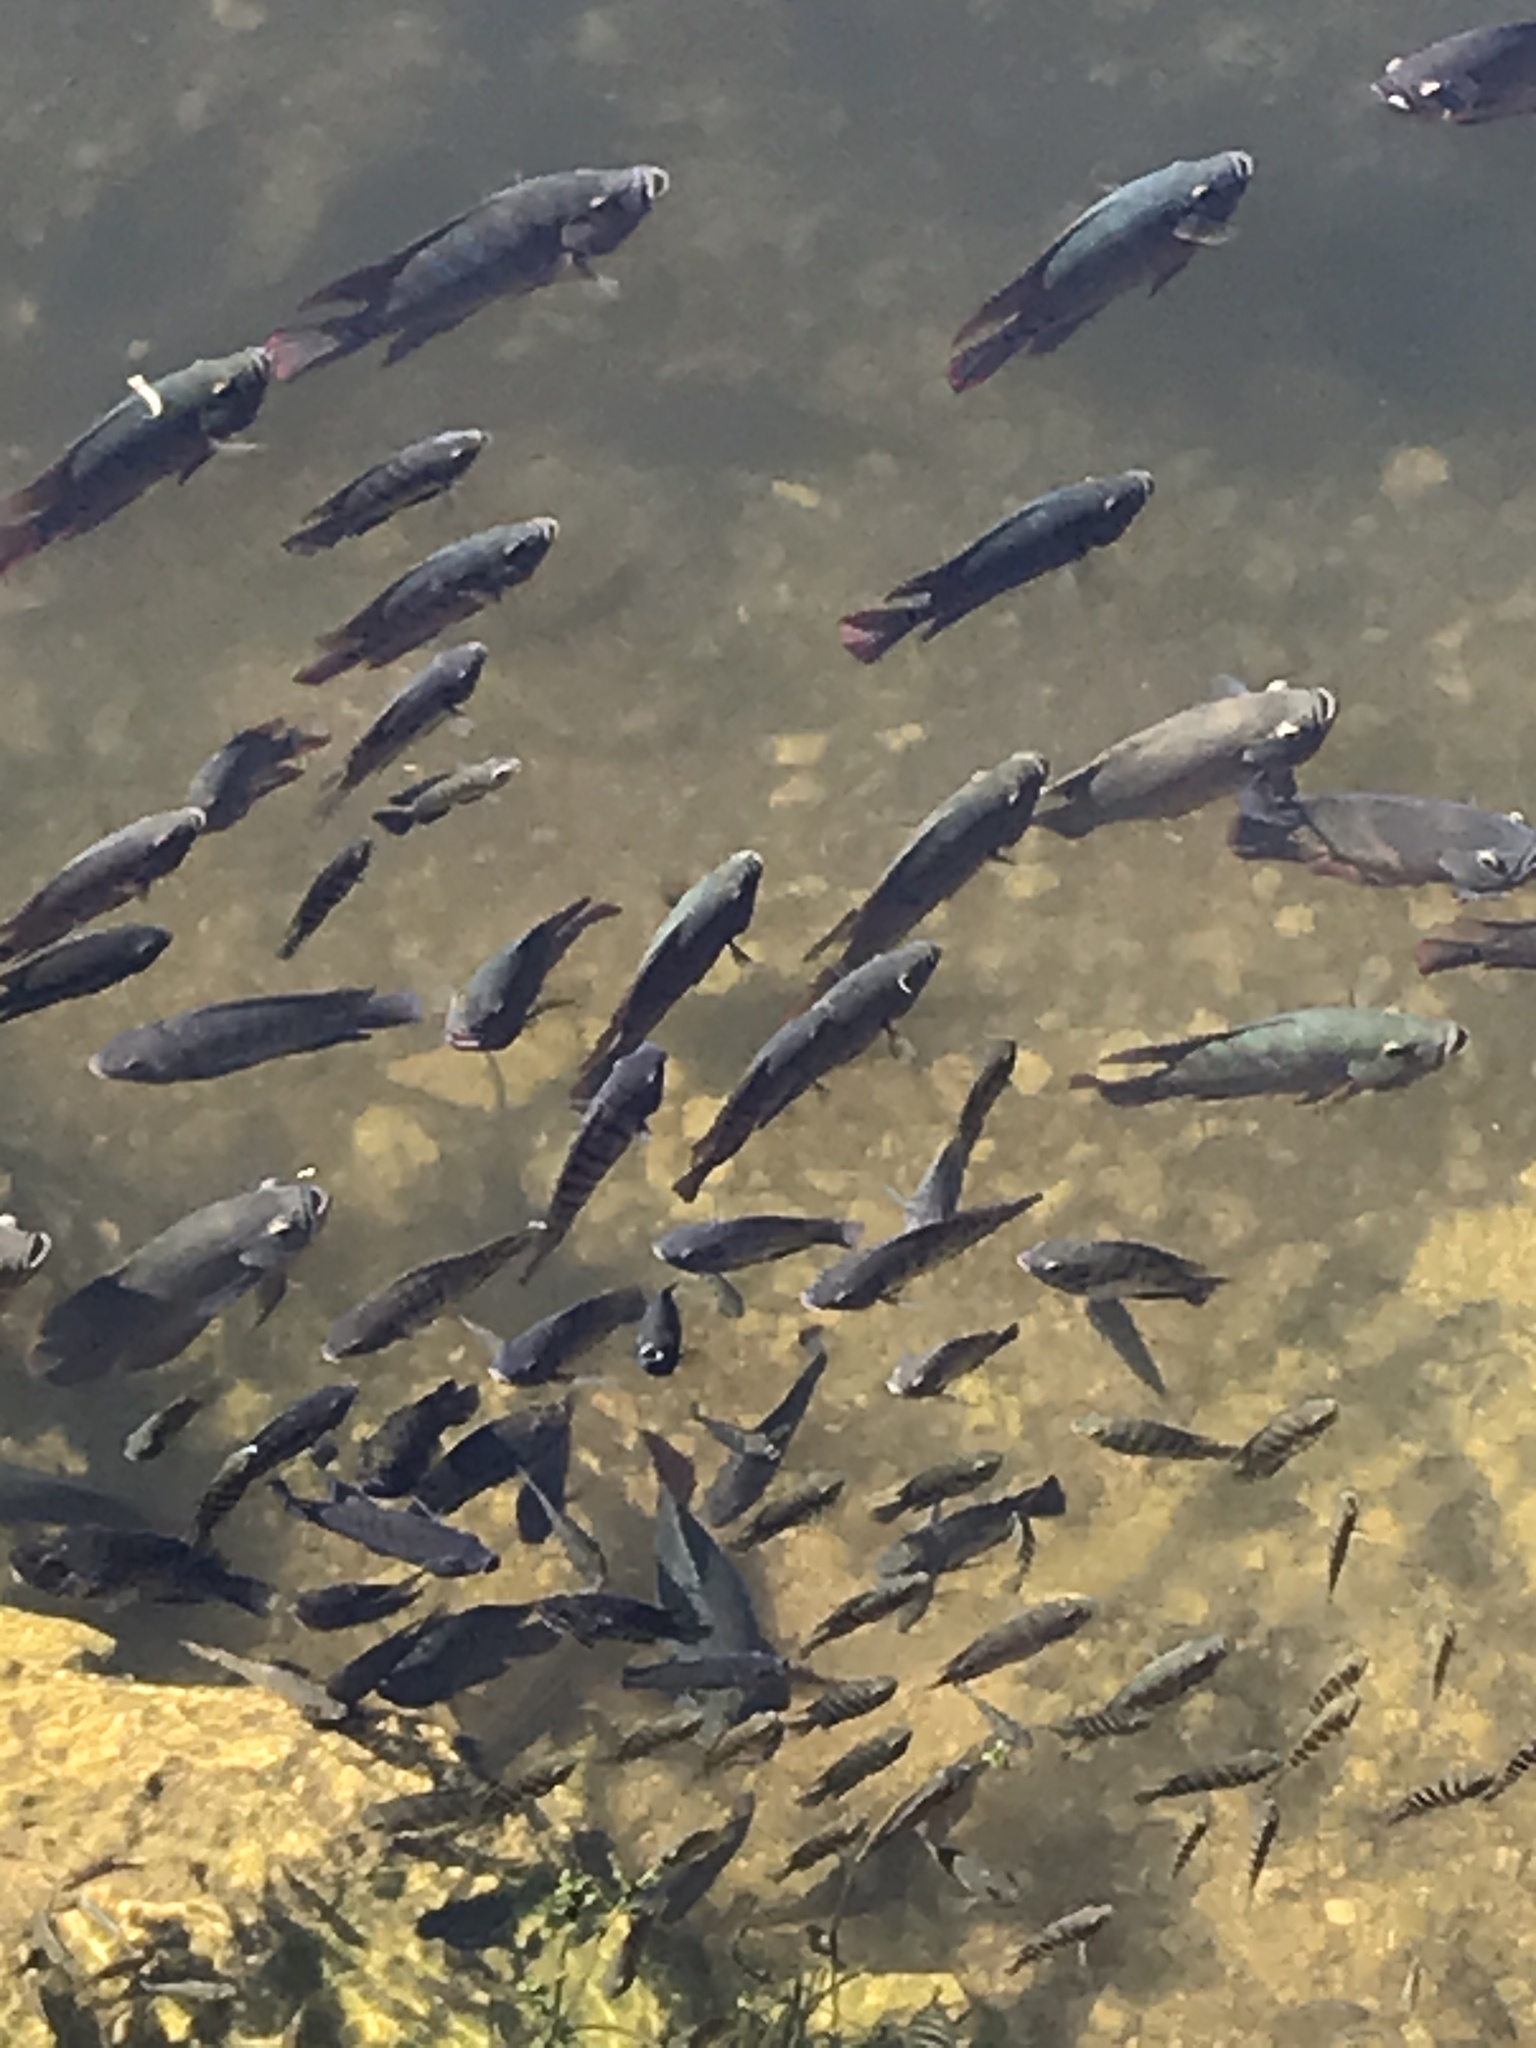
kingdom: Animalia
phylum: Chordata
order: Perciformes
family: Cichlidae
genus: Pelmatolapia
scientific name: Pelmatolapia mariae
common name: Spotted tilapia
